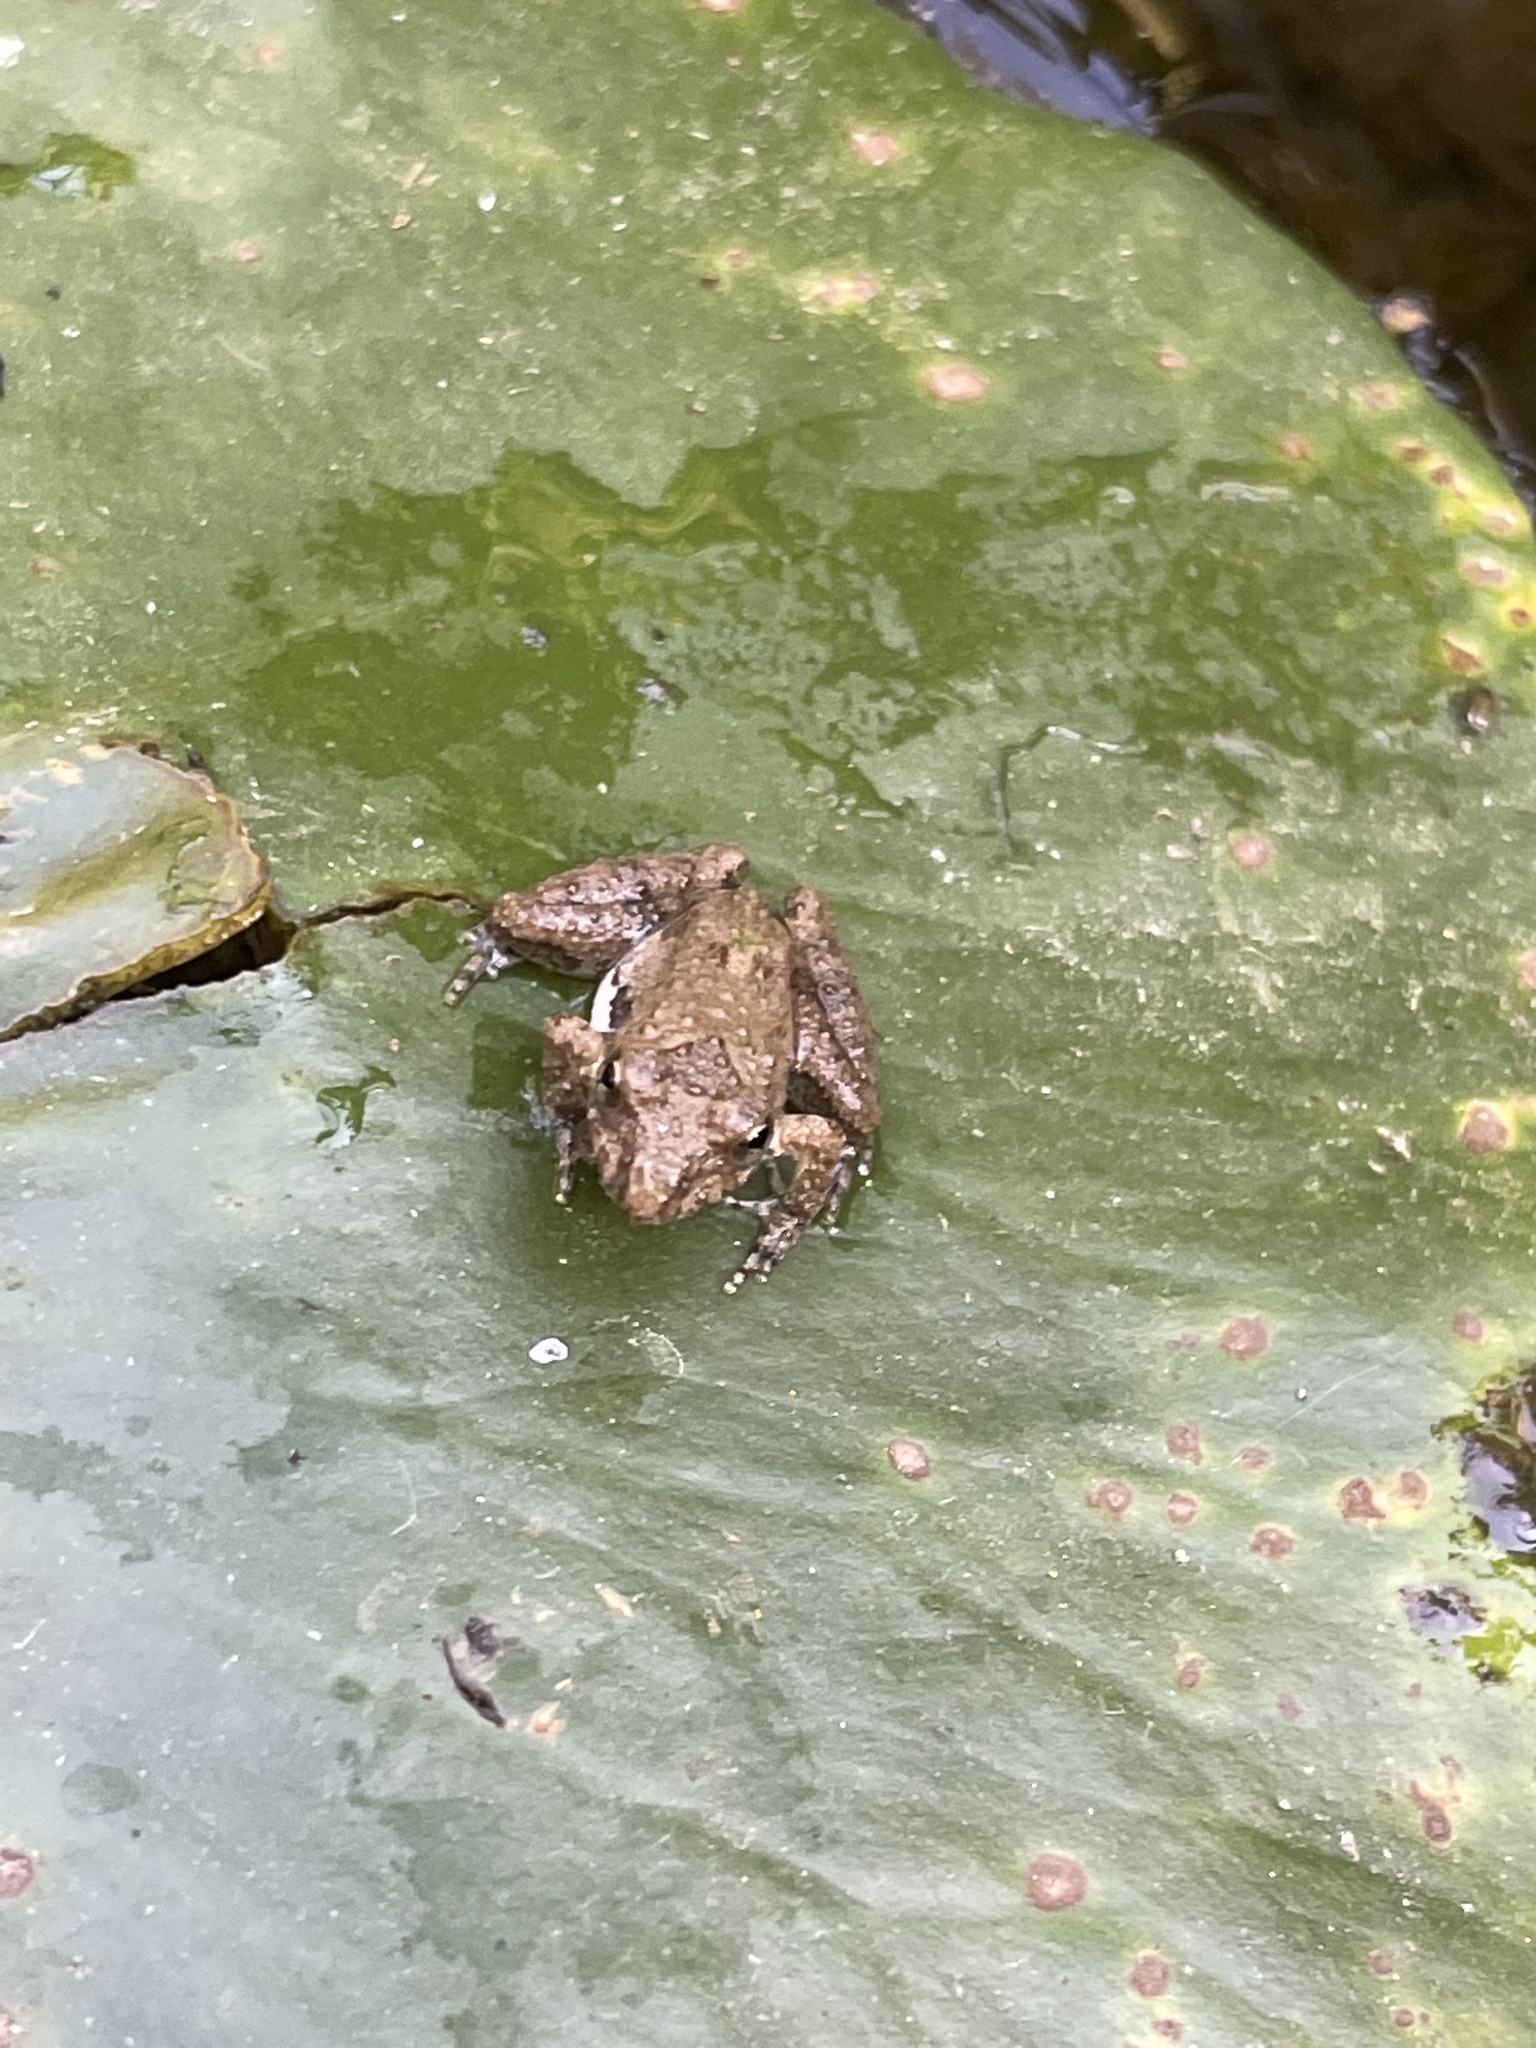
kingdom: Animalia
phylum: Chordata
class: Amphibia
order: Anura
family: Hylidae
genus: Acris
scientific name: Acris blanchardi
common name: Blanchard's cricket frog
